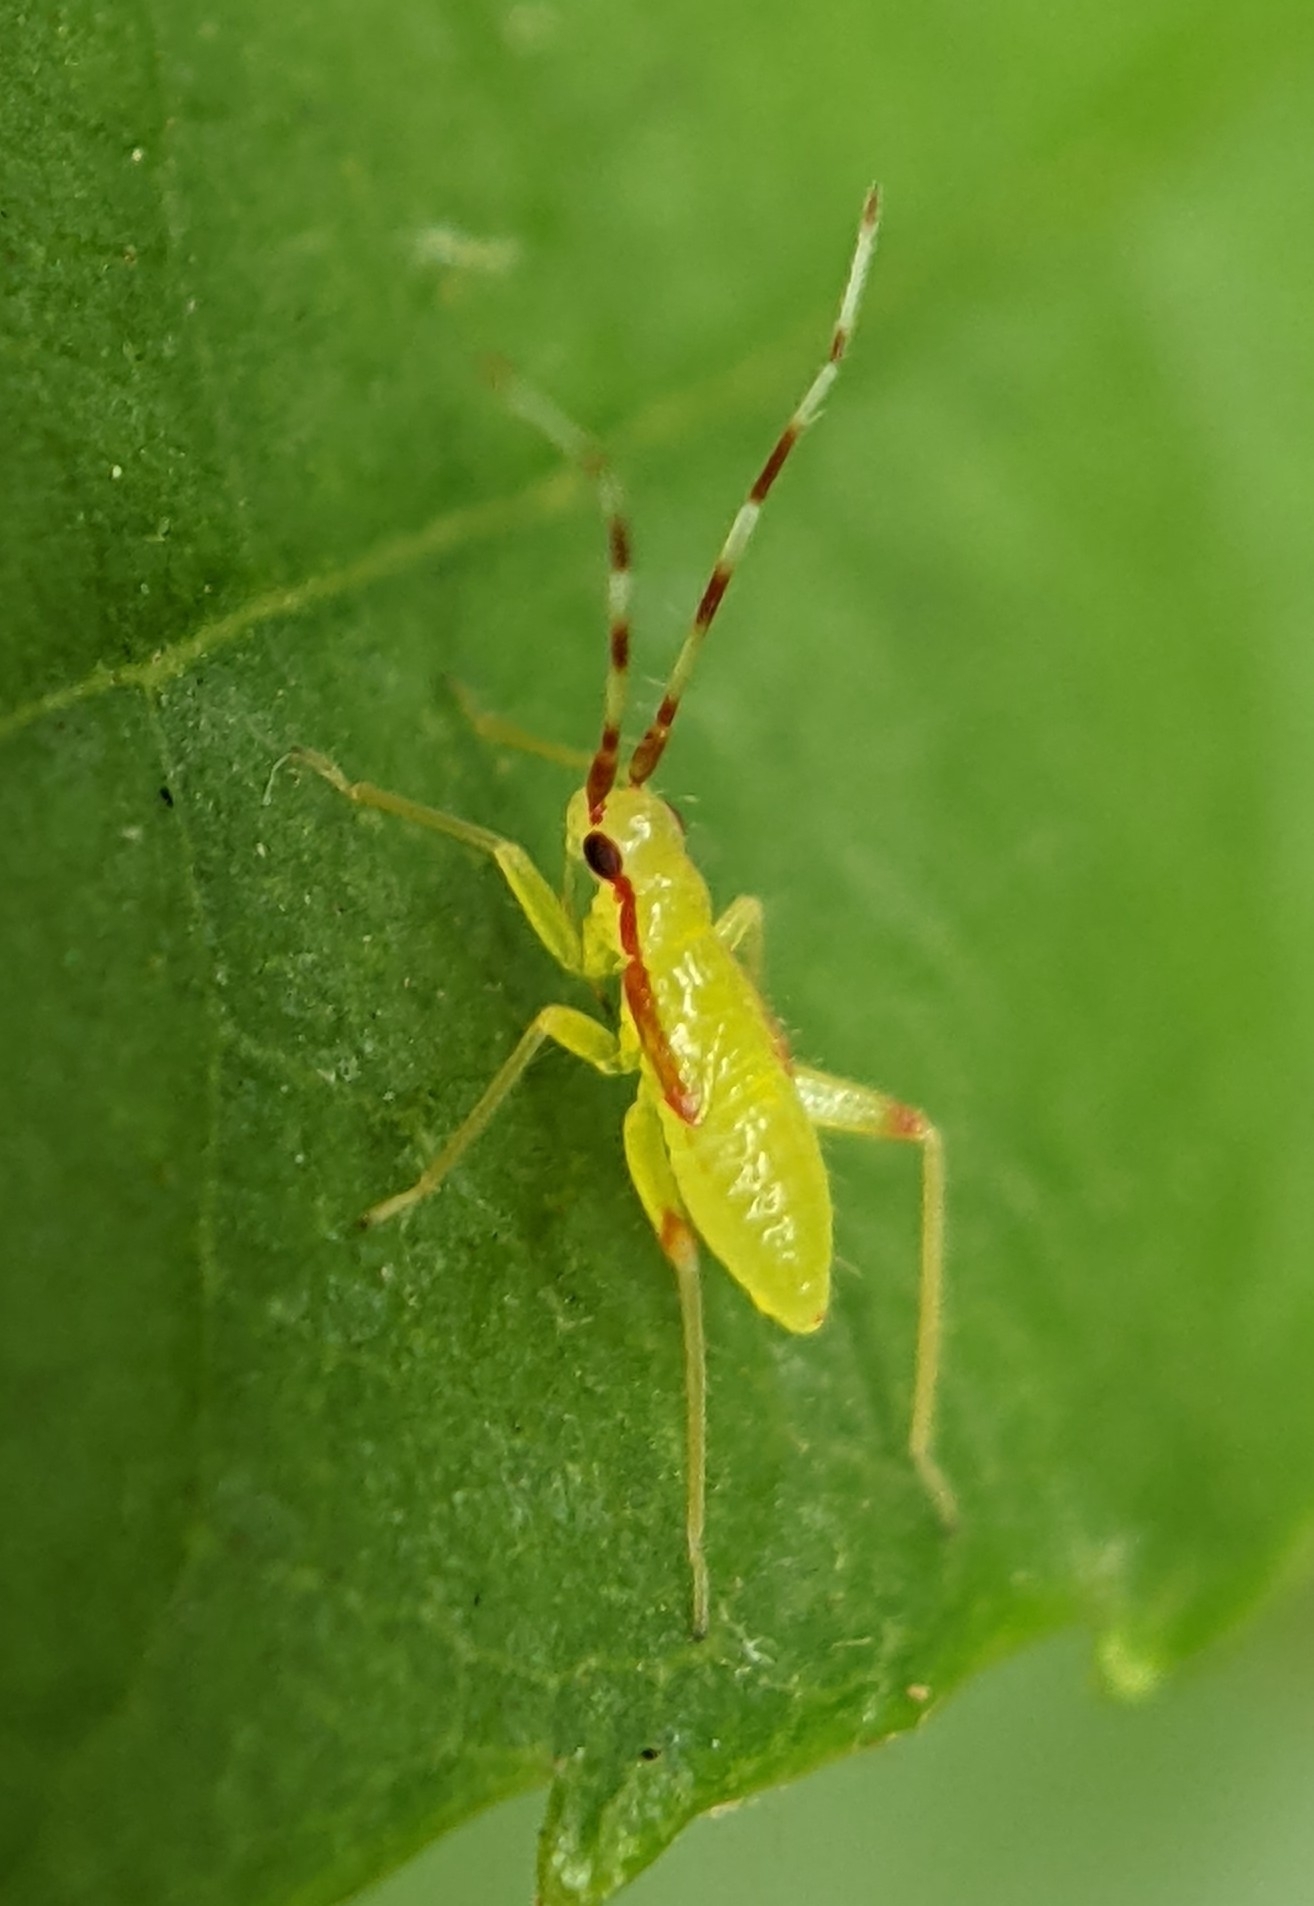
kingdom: Animalia
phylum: Arthropoda
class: Insecta
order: Hemiptera
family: Miridae
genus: Campyloneura
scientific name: Campyloneura virgula
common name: Predatory bug
